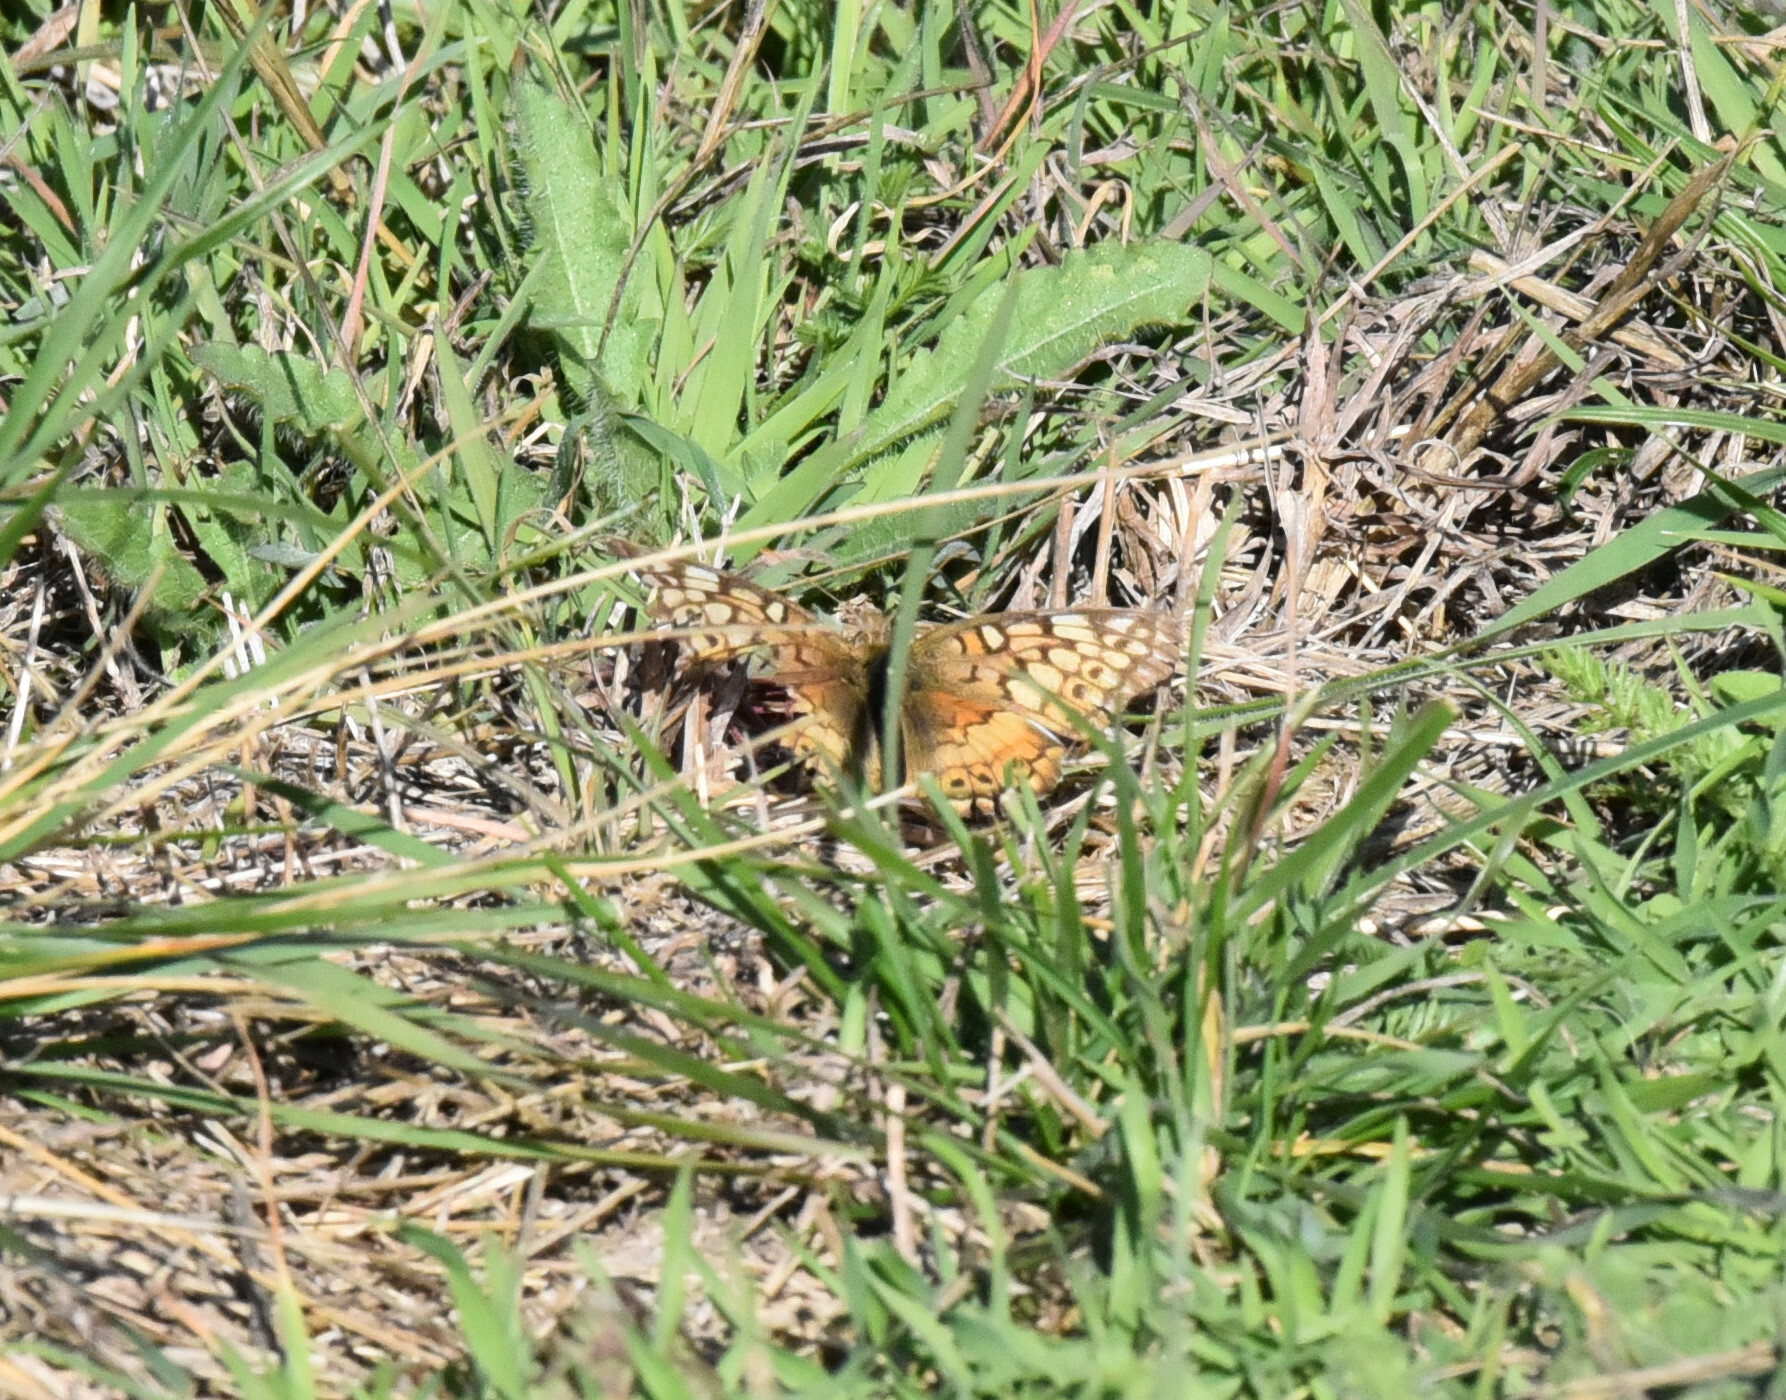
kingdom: Animalia
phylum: Arthropoda
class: Insecta
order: Lepidoptera
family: Nymphalidae
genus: Euptoieta
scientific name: Euptoieta claudia
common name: Variegated fritillary
